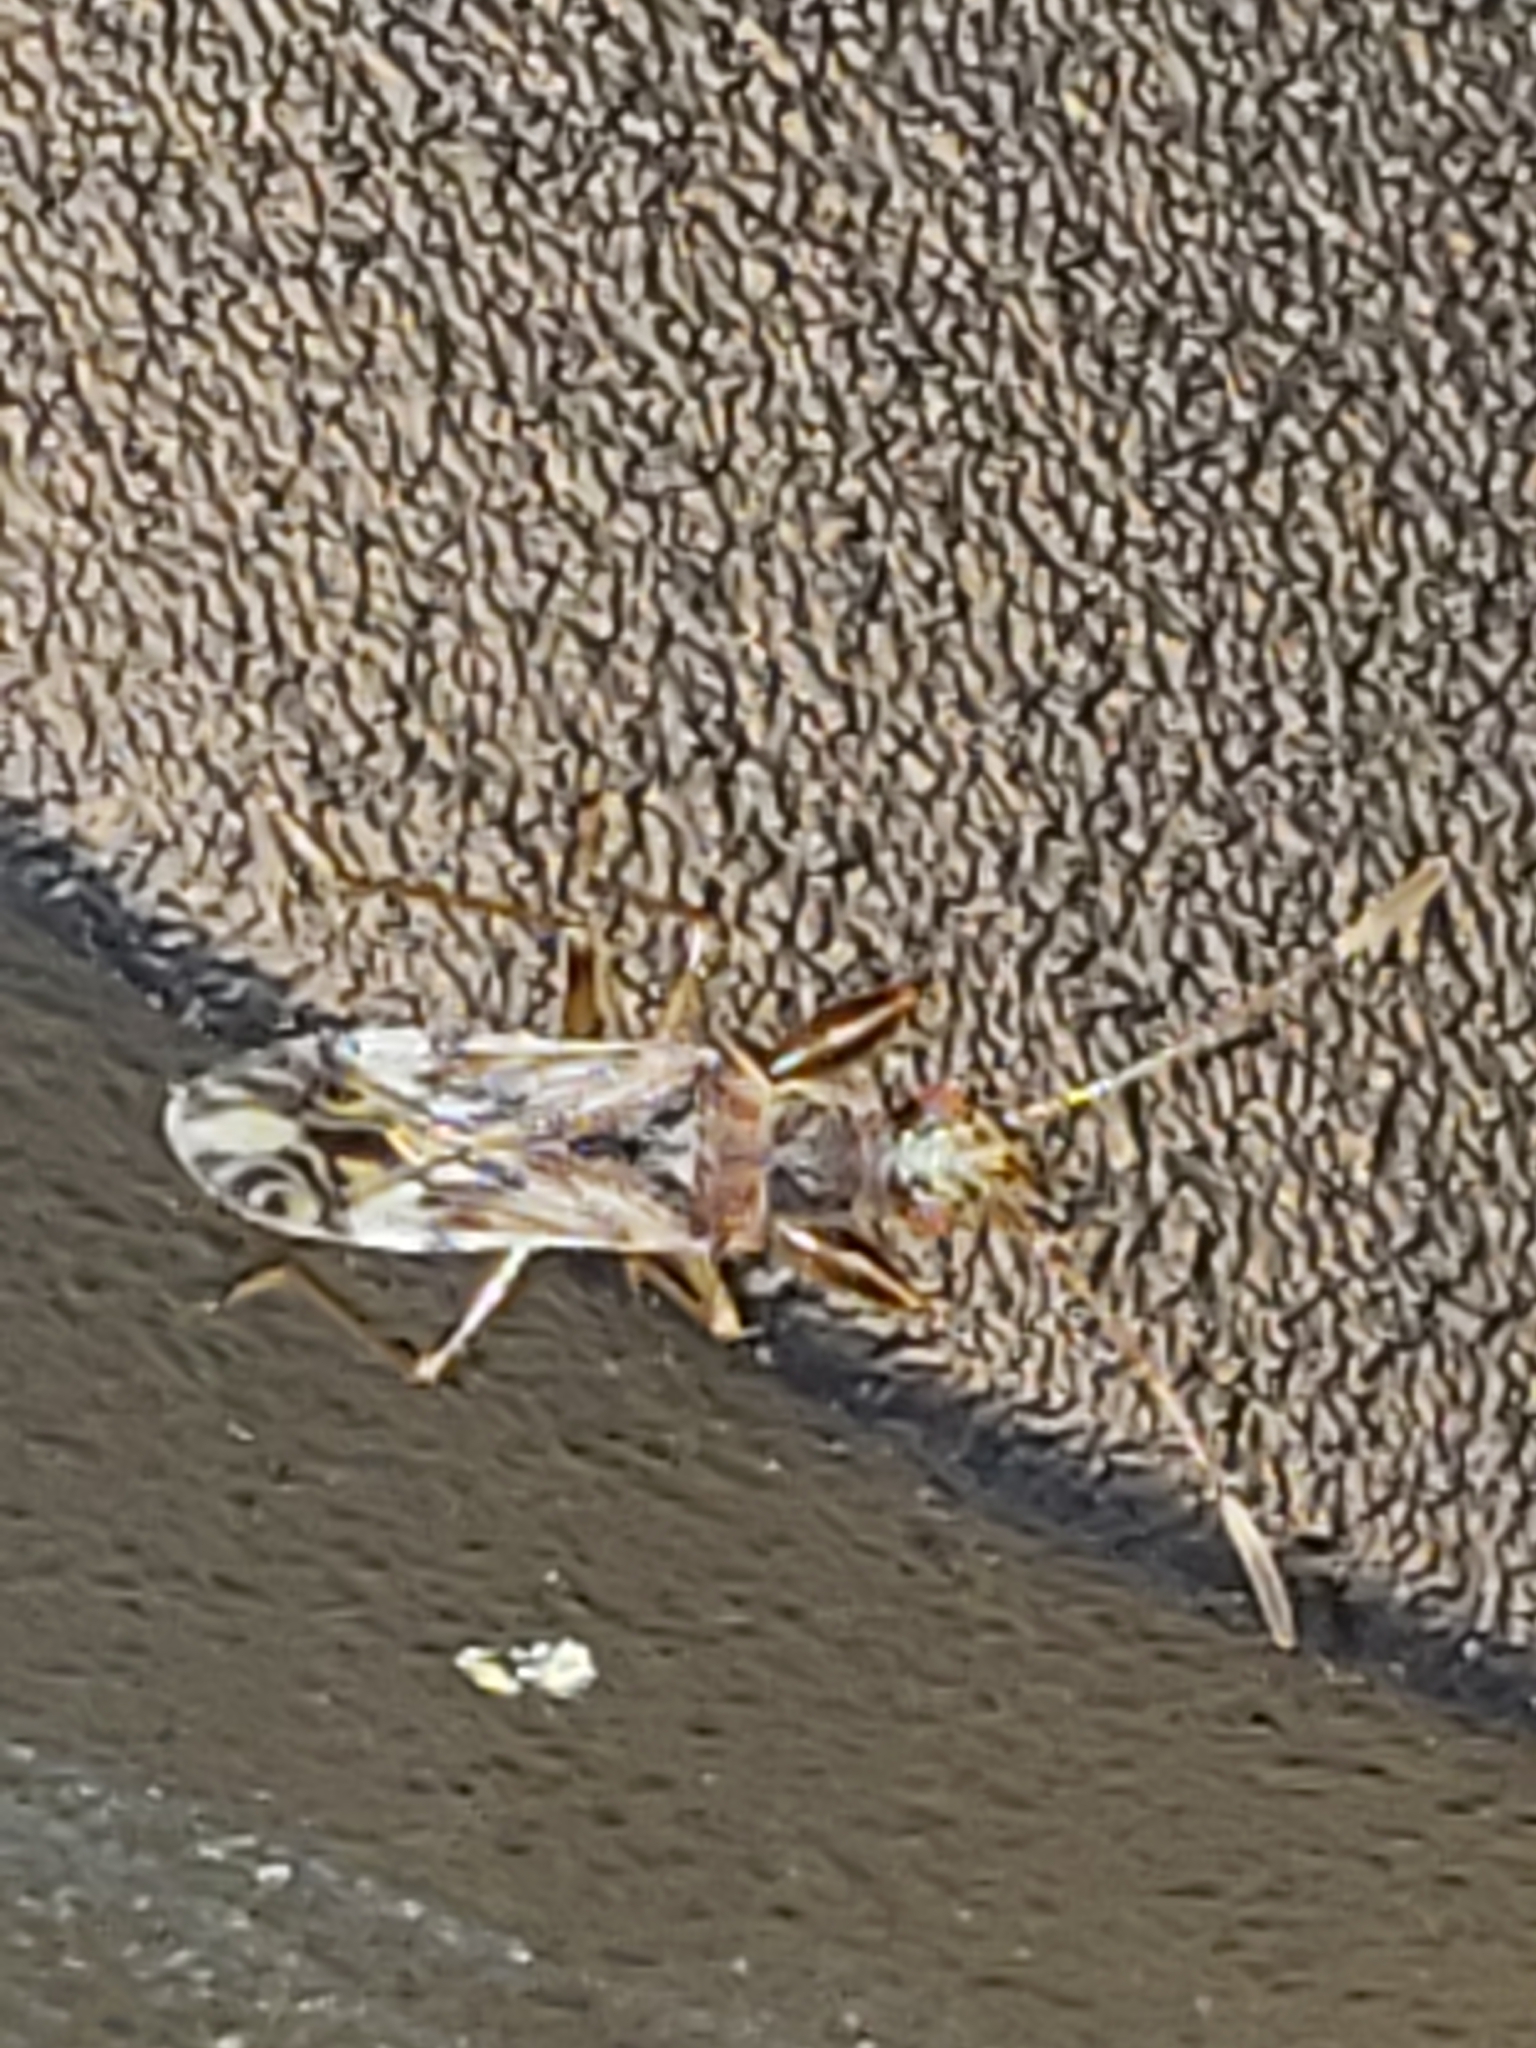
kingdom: Animalia
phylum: Arthropoda
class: Insecta
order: Hemiptera
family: Rhyparochromidae
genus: Neopamera
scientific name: Neopamera albocincta
